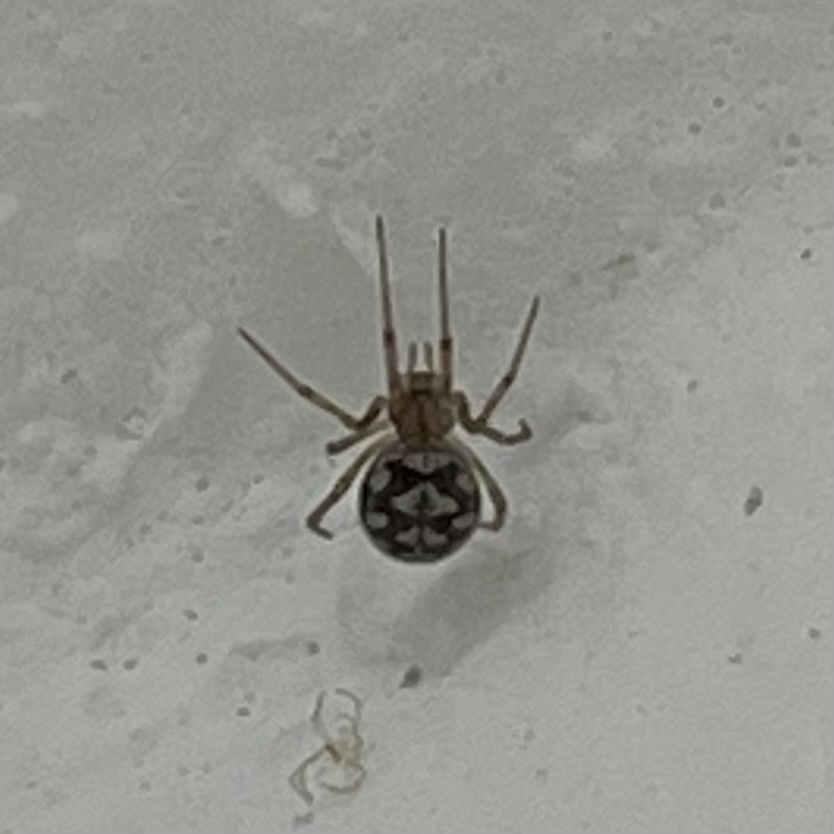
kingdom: Animalia
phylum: Arthropoda
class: Arachnida
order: Araneae
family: Theridiidae
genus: Steatoda
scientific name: Steatoda triangulosa
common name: Triangulate bud spider
